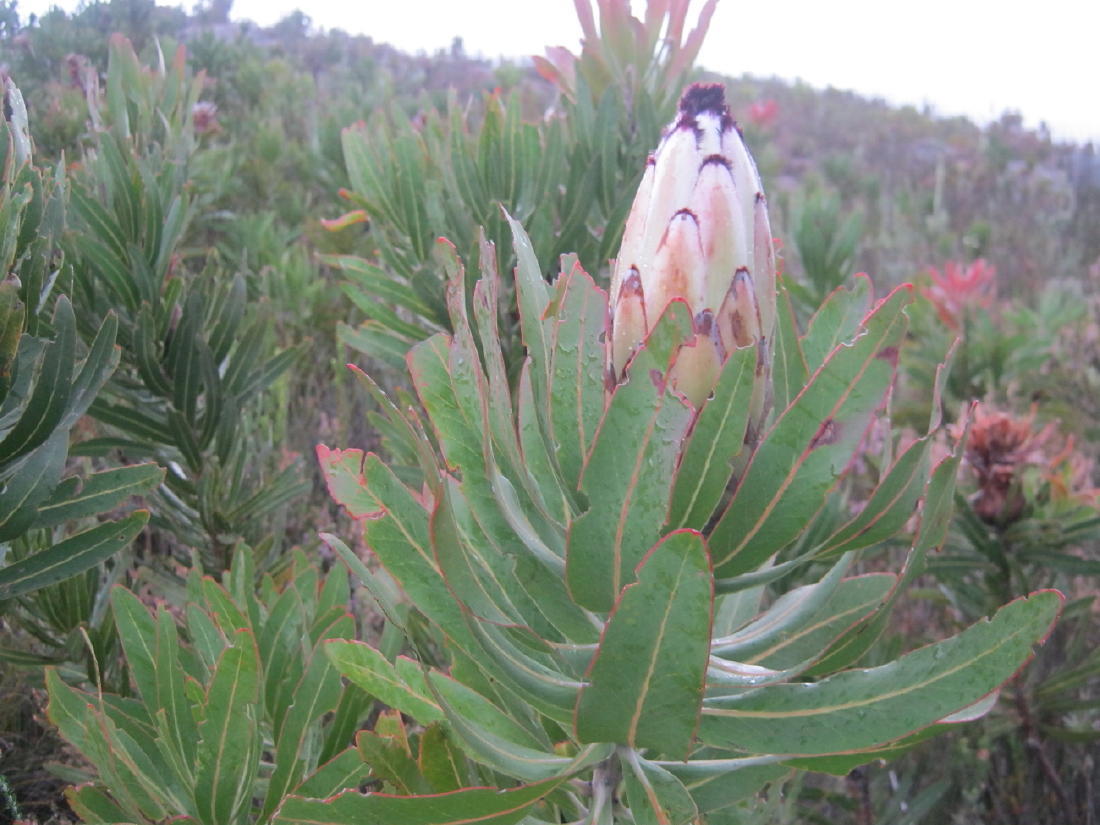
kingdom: Plantae
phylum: Tracheophyta
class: Magnoliopsida
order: Proteales
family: Proteaceae
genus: Protea
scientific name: Protea neriifolia
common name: Blue sugarbush
